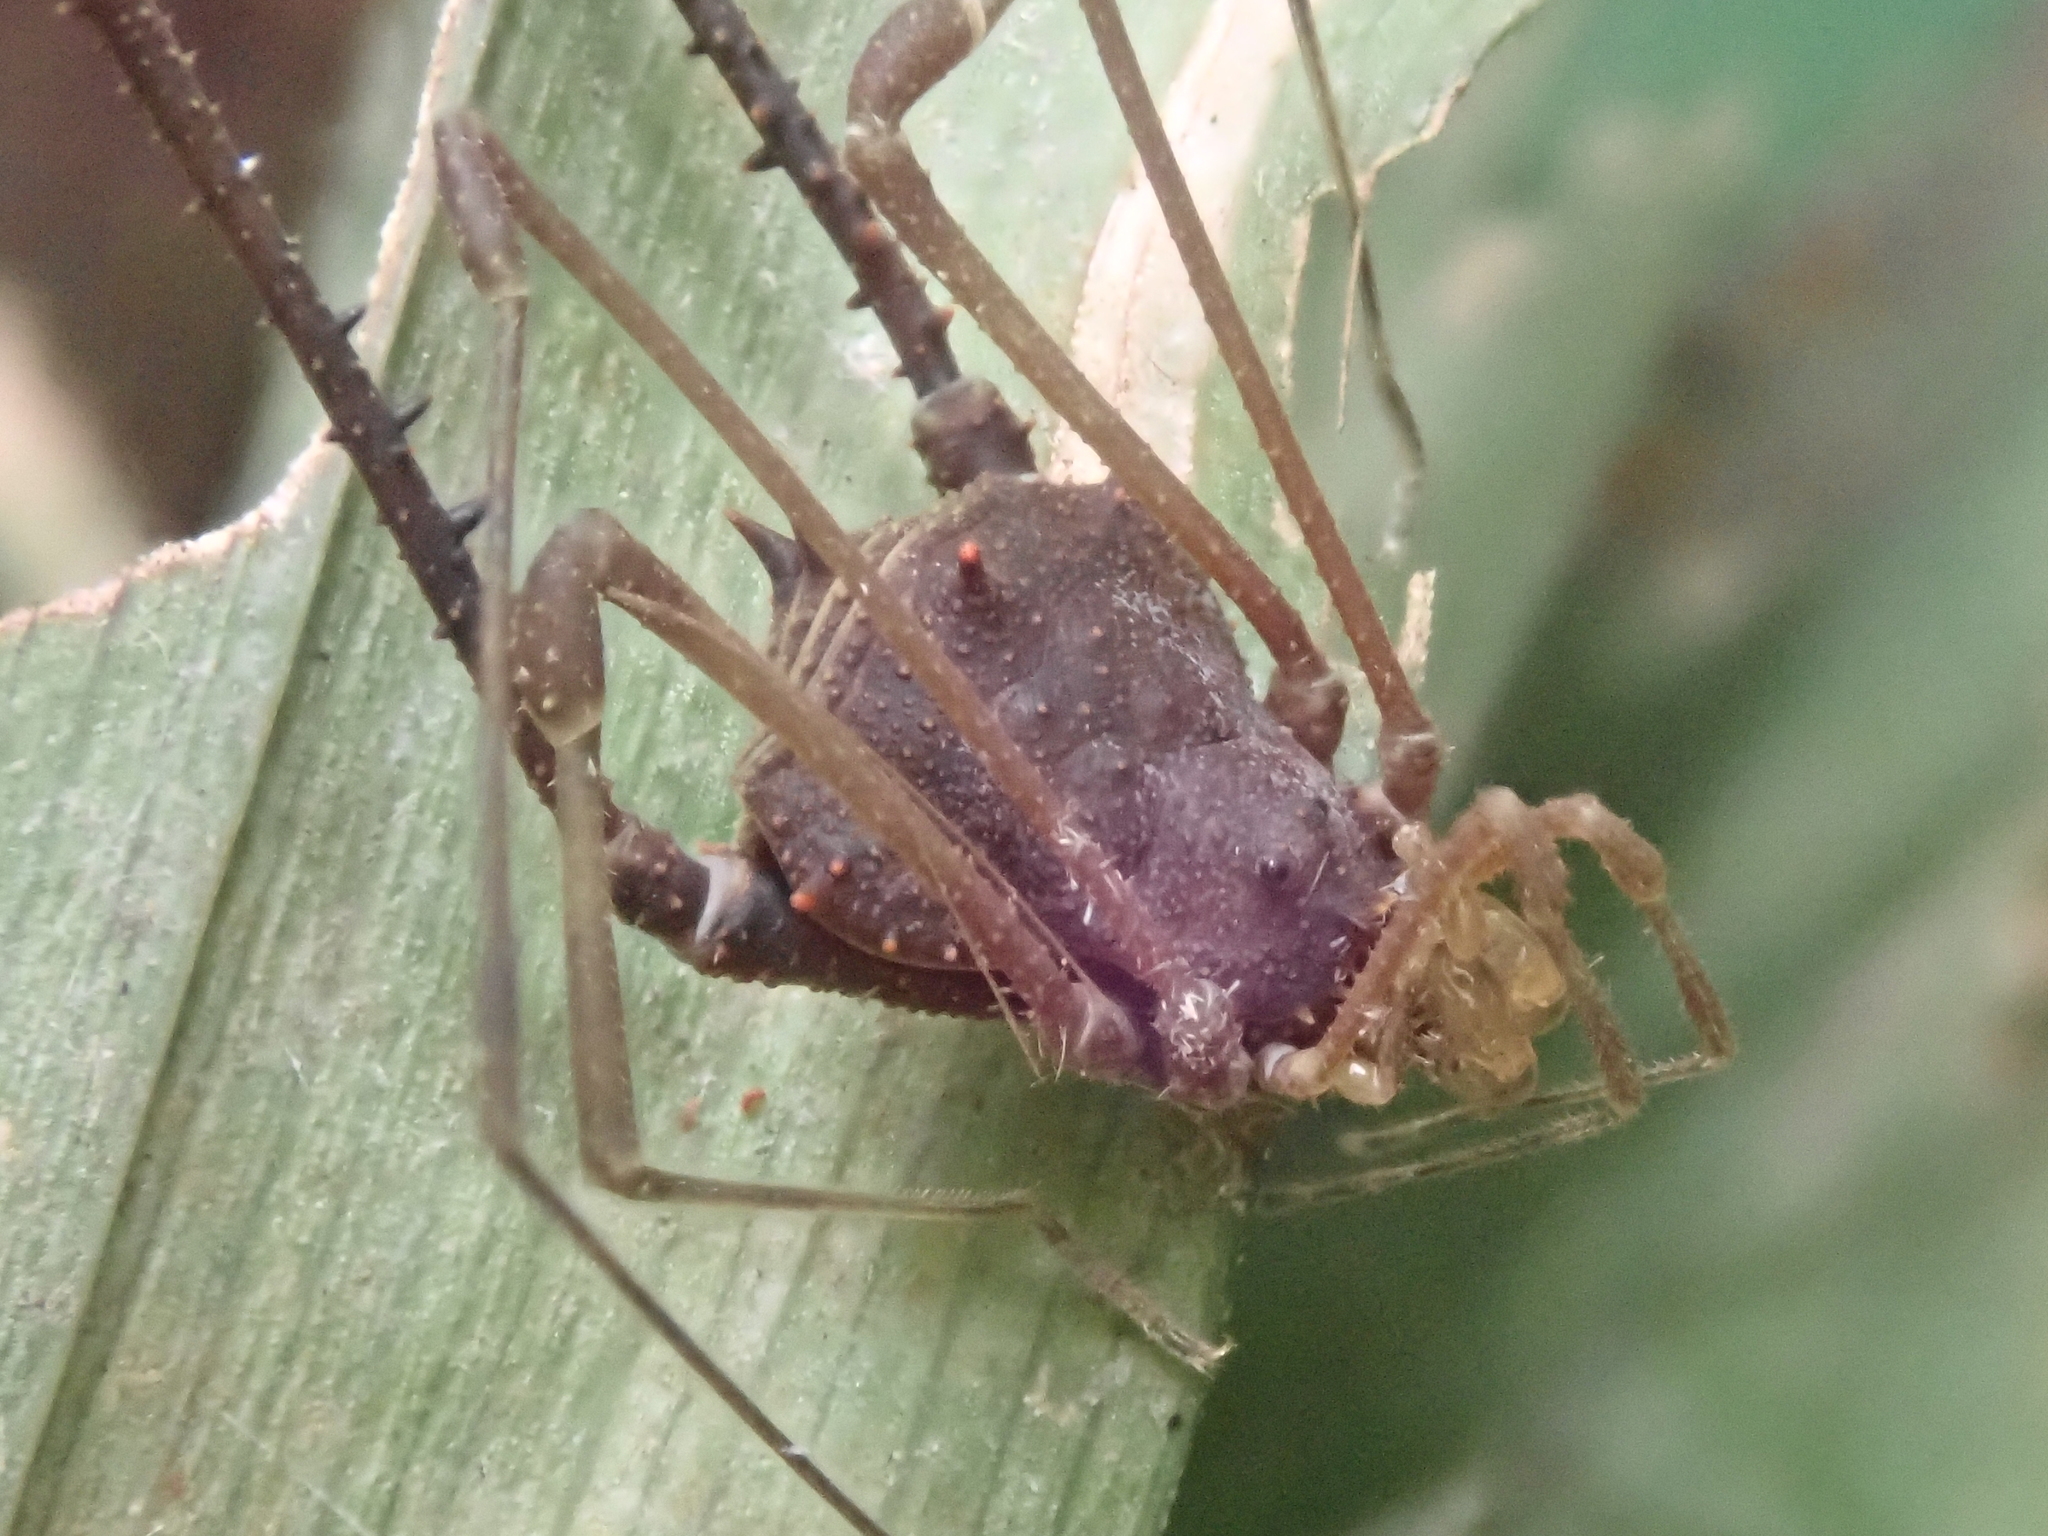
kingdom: Animalia
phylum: Arthropoda
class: Arachnida
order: Opiliones
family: Gonyleptidae
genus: Acrogonyleptes
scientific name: Acrogonyleptes rhinoceros
